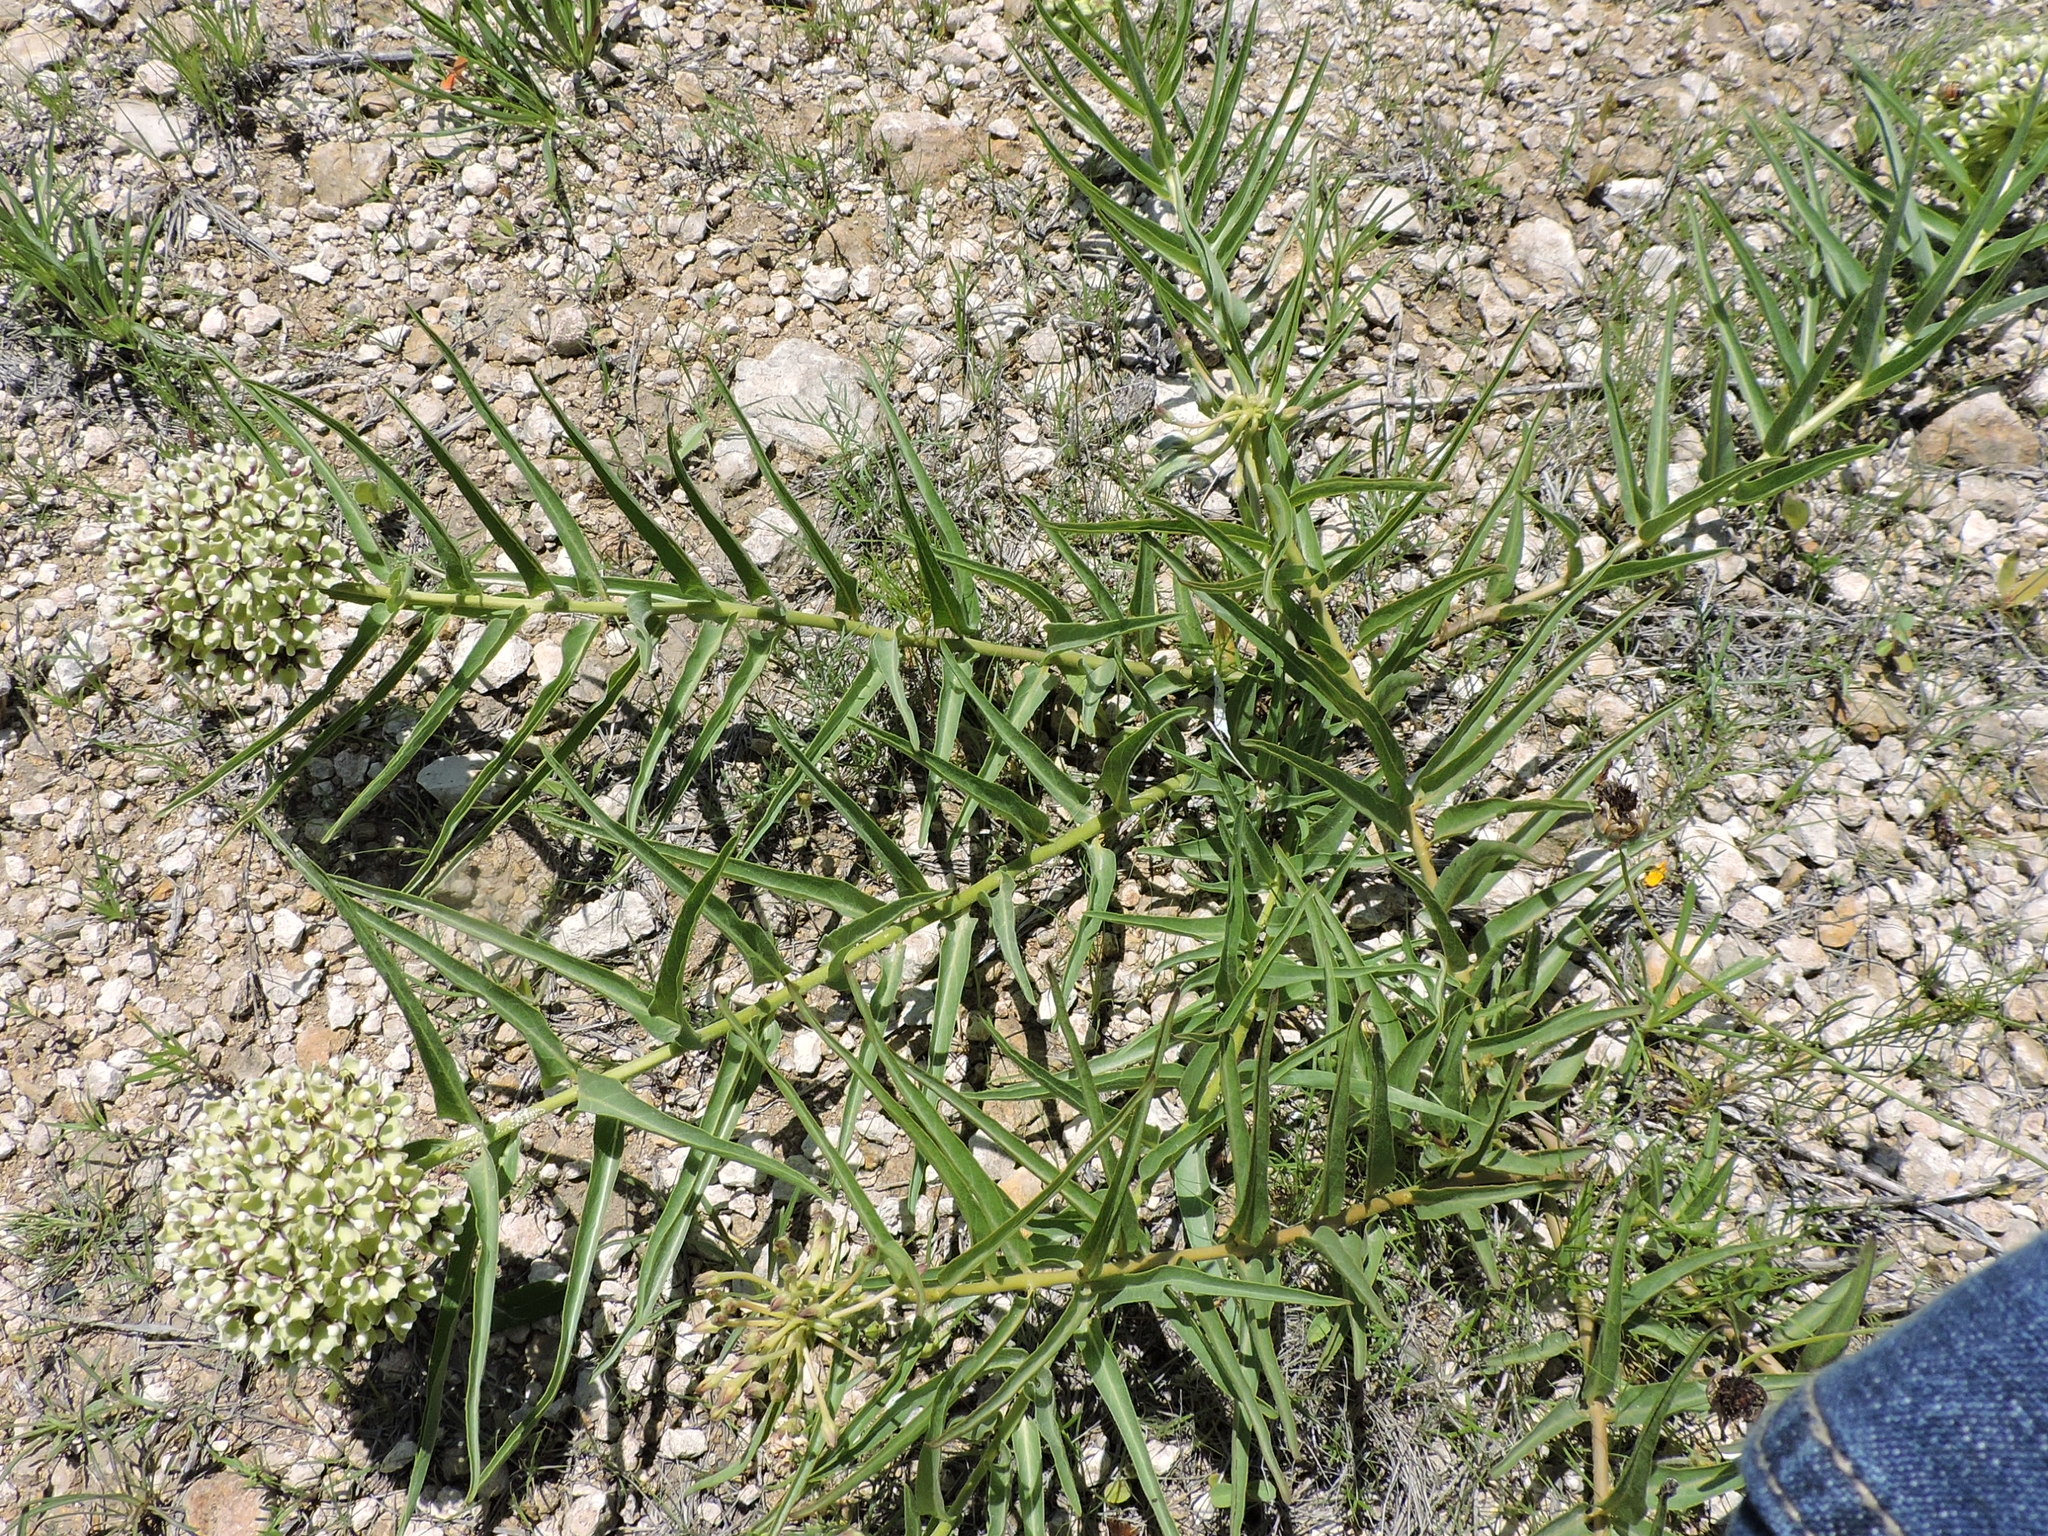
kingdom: Plantae
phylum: Tracheophyta
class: Magnoliopsida
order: Gentianales
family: Apocynaceae
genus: Asclepias
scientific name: Asclepias asperula
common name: Antelope horns
